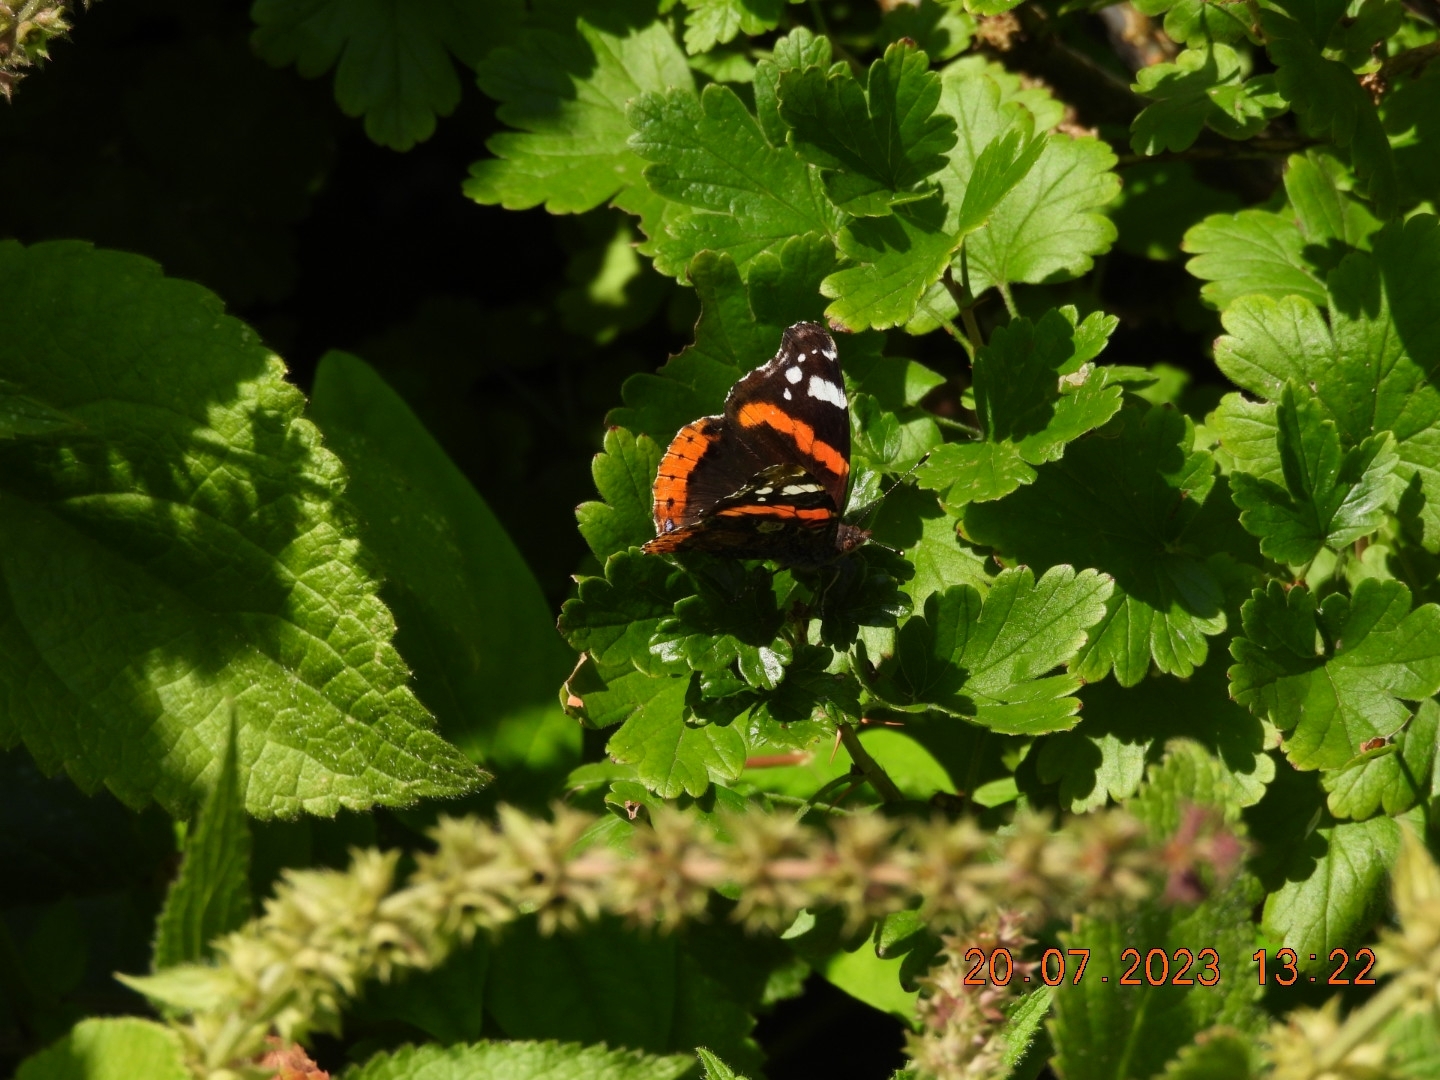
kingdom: Animalia
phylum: Arthropoda
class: Insecta
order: Lepidoptera
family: Nymphalidae
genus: Vanessa
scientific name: Vanessa atalanta
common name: Red admiral
